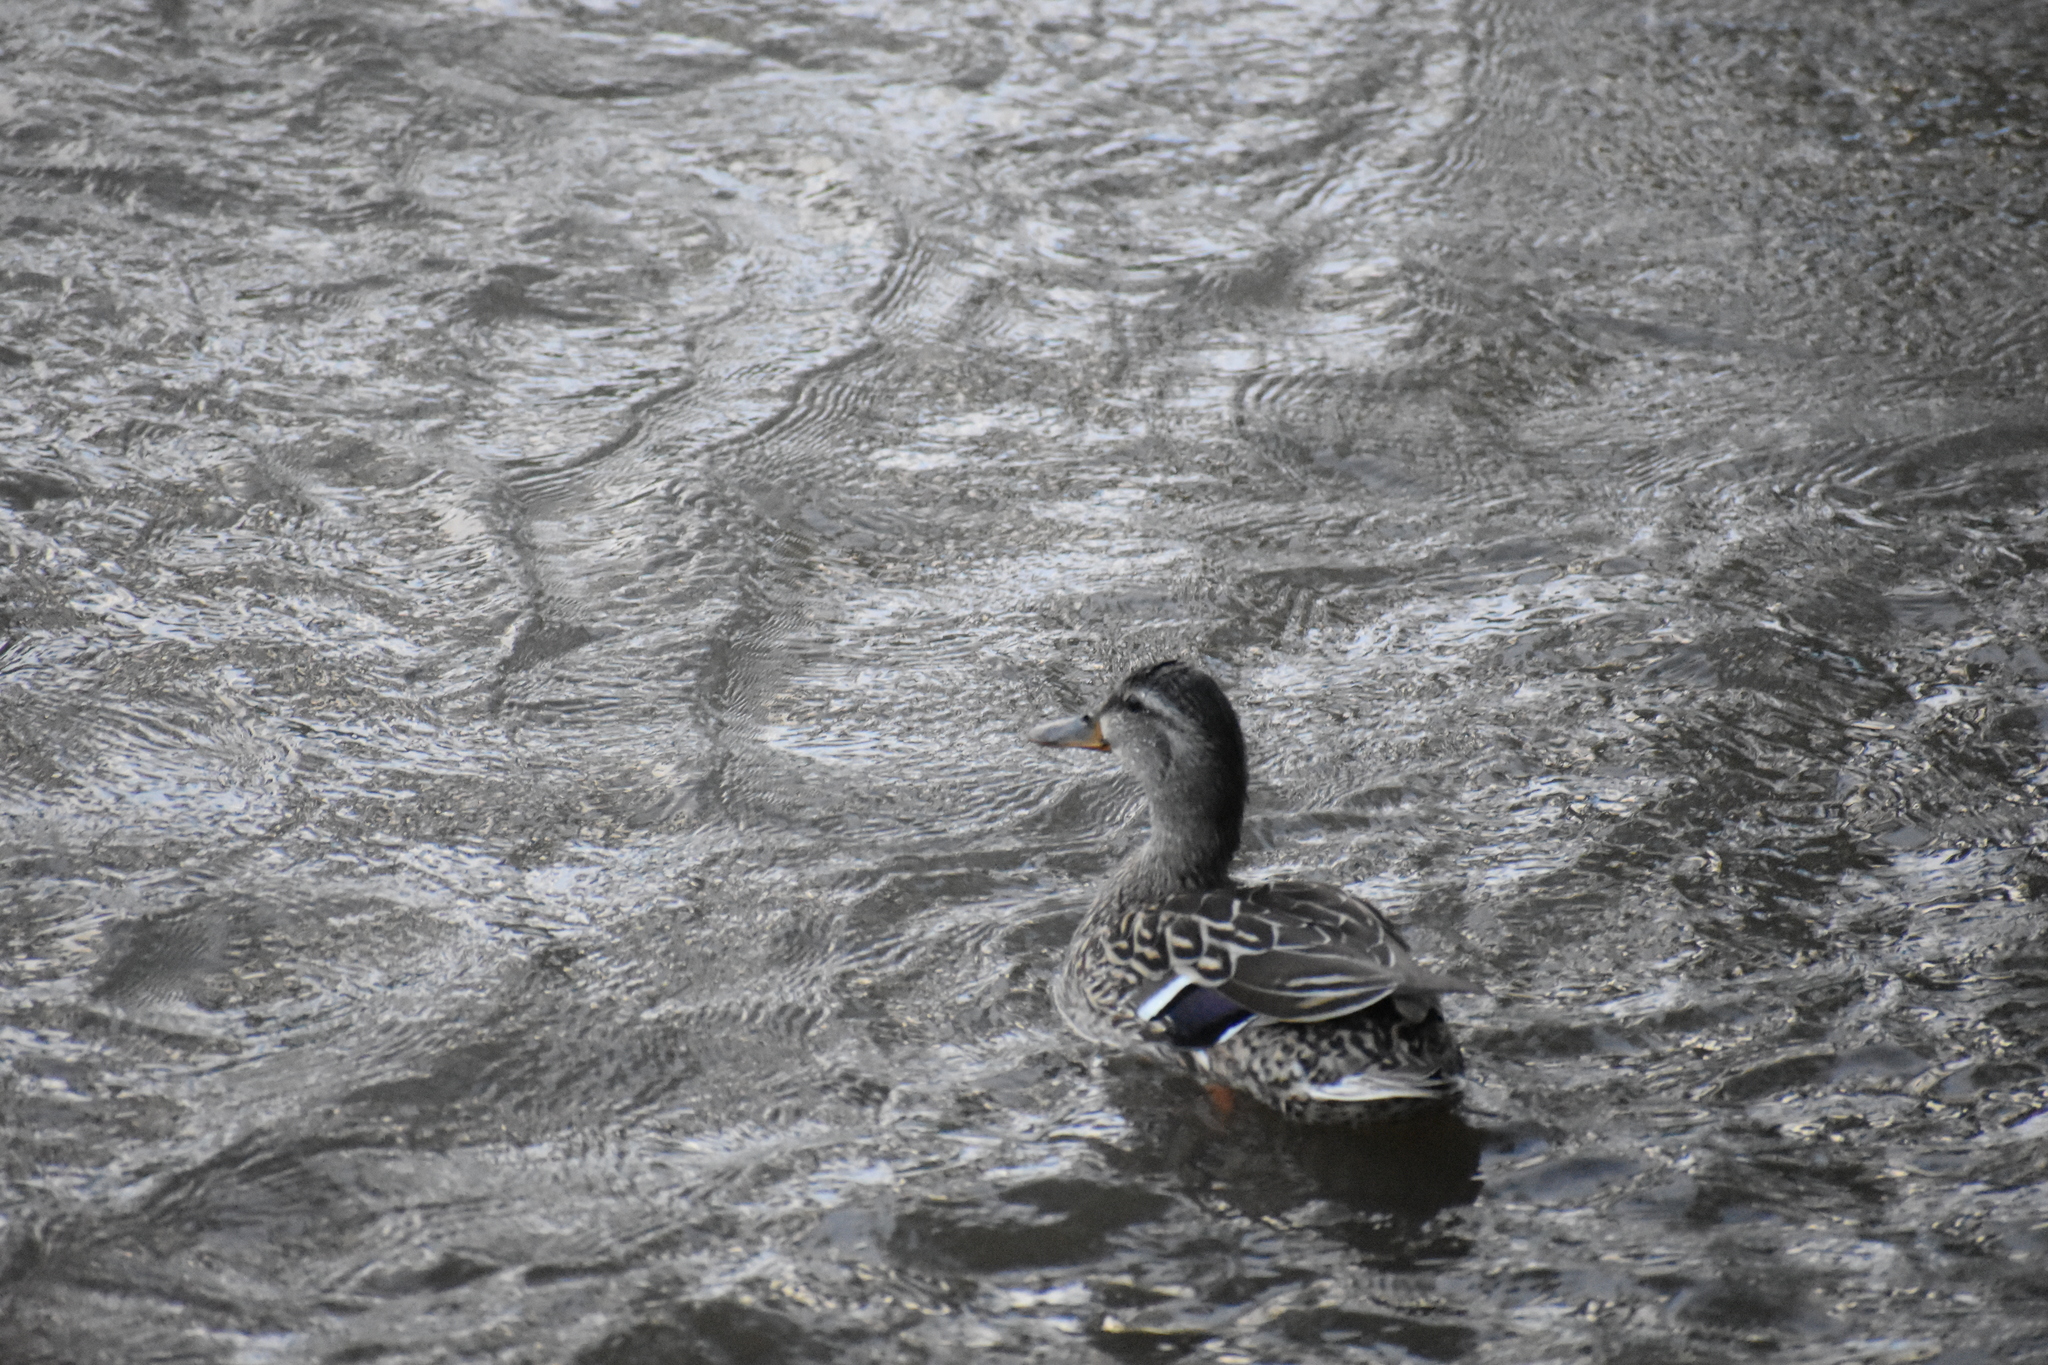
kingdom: Animalia
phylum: Chordata
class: Aves
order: Anseriformes
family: Anatidae
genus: Anas
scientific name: Anas platyrhynchos
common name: Mallard
